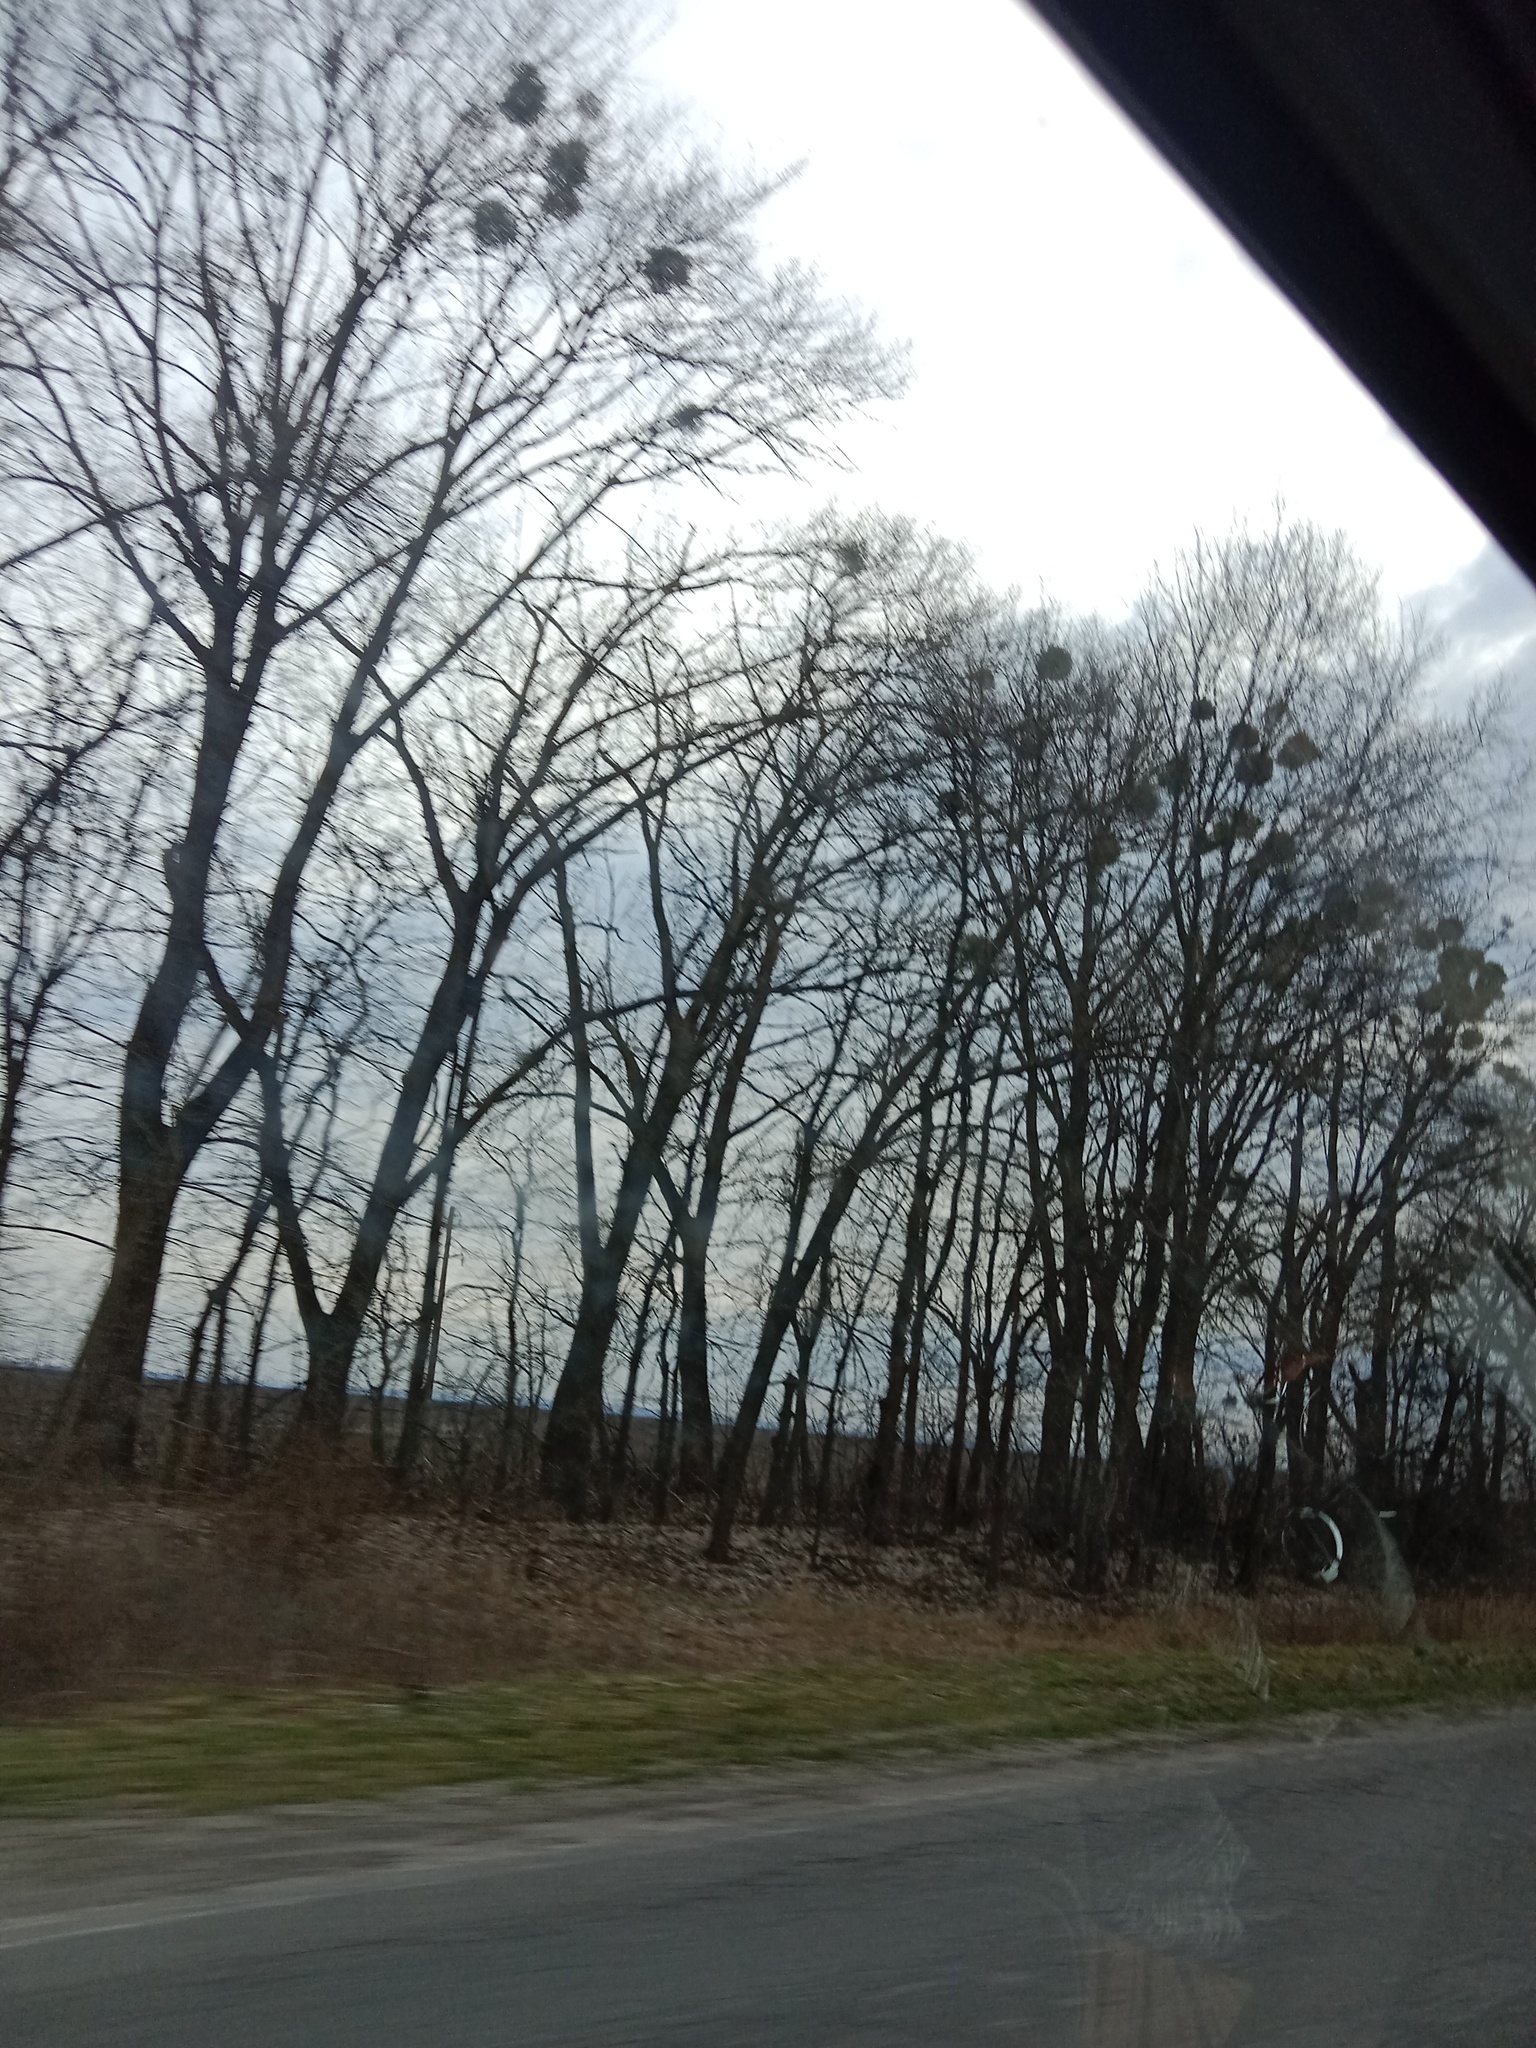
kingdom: Plantae
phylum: Tracheophyta
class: Magnoliopsida
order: Santalales
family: Viscaceae
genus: Viscum
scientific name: Viscum album
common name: Mistletoe
